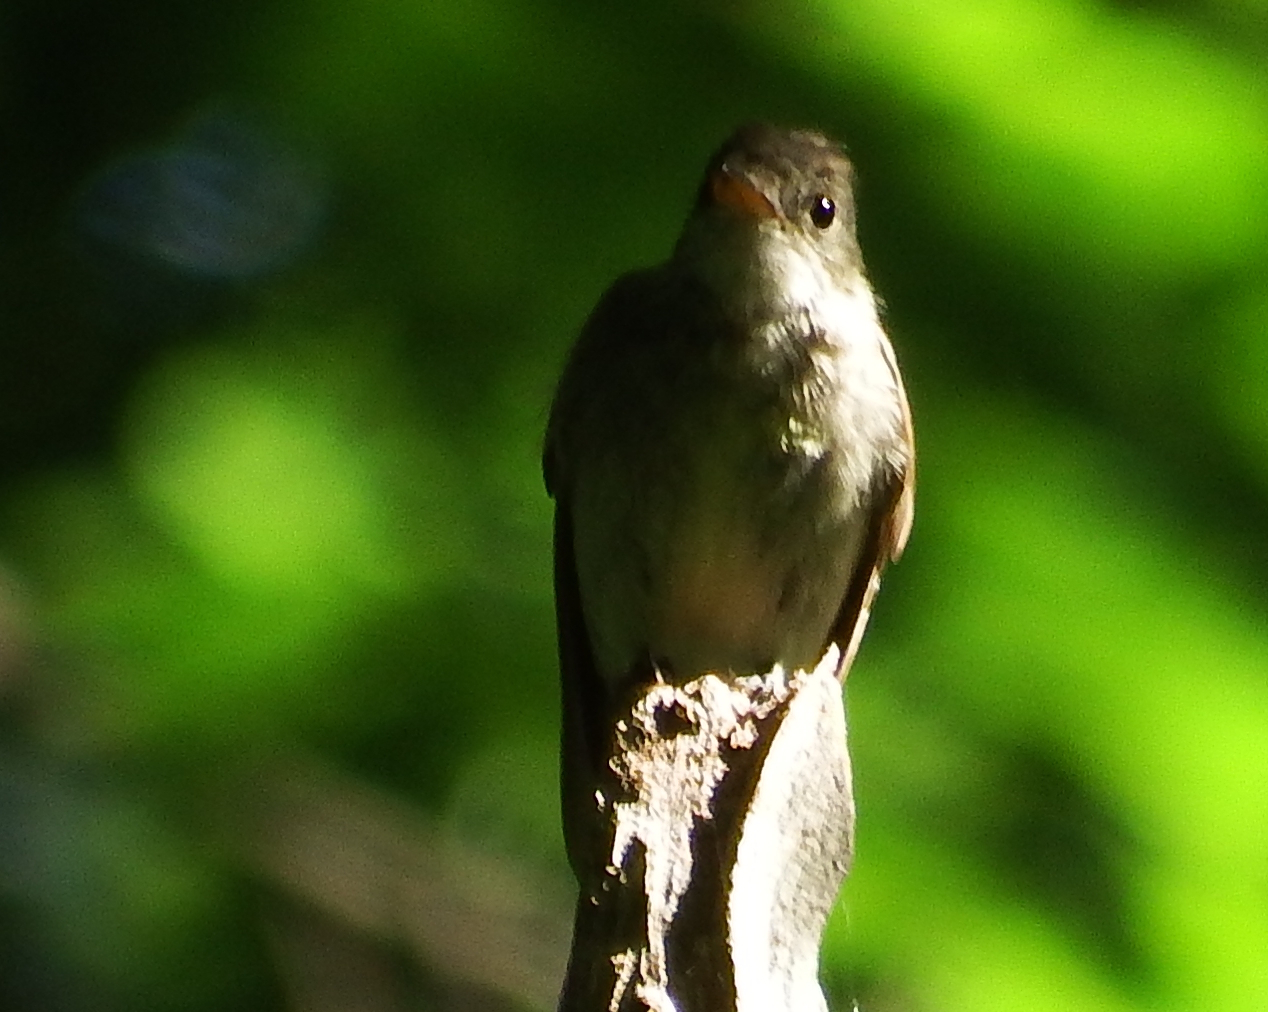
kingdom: Animalia
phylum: Chordata
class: Aves
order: Passeriformes
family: Tyrannidae
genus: Contopus
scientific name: Contopus virens
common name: Eastern wood-pewee
